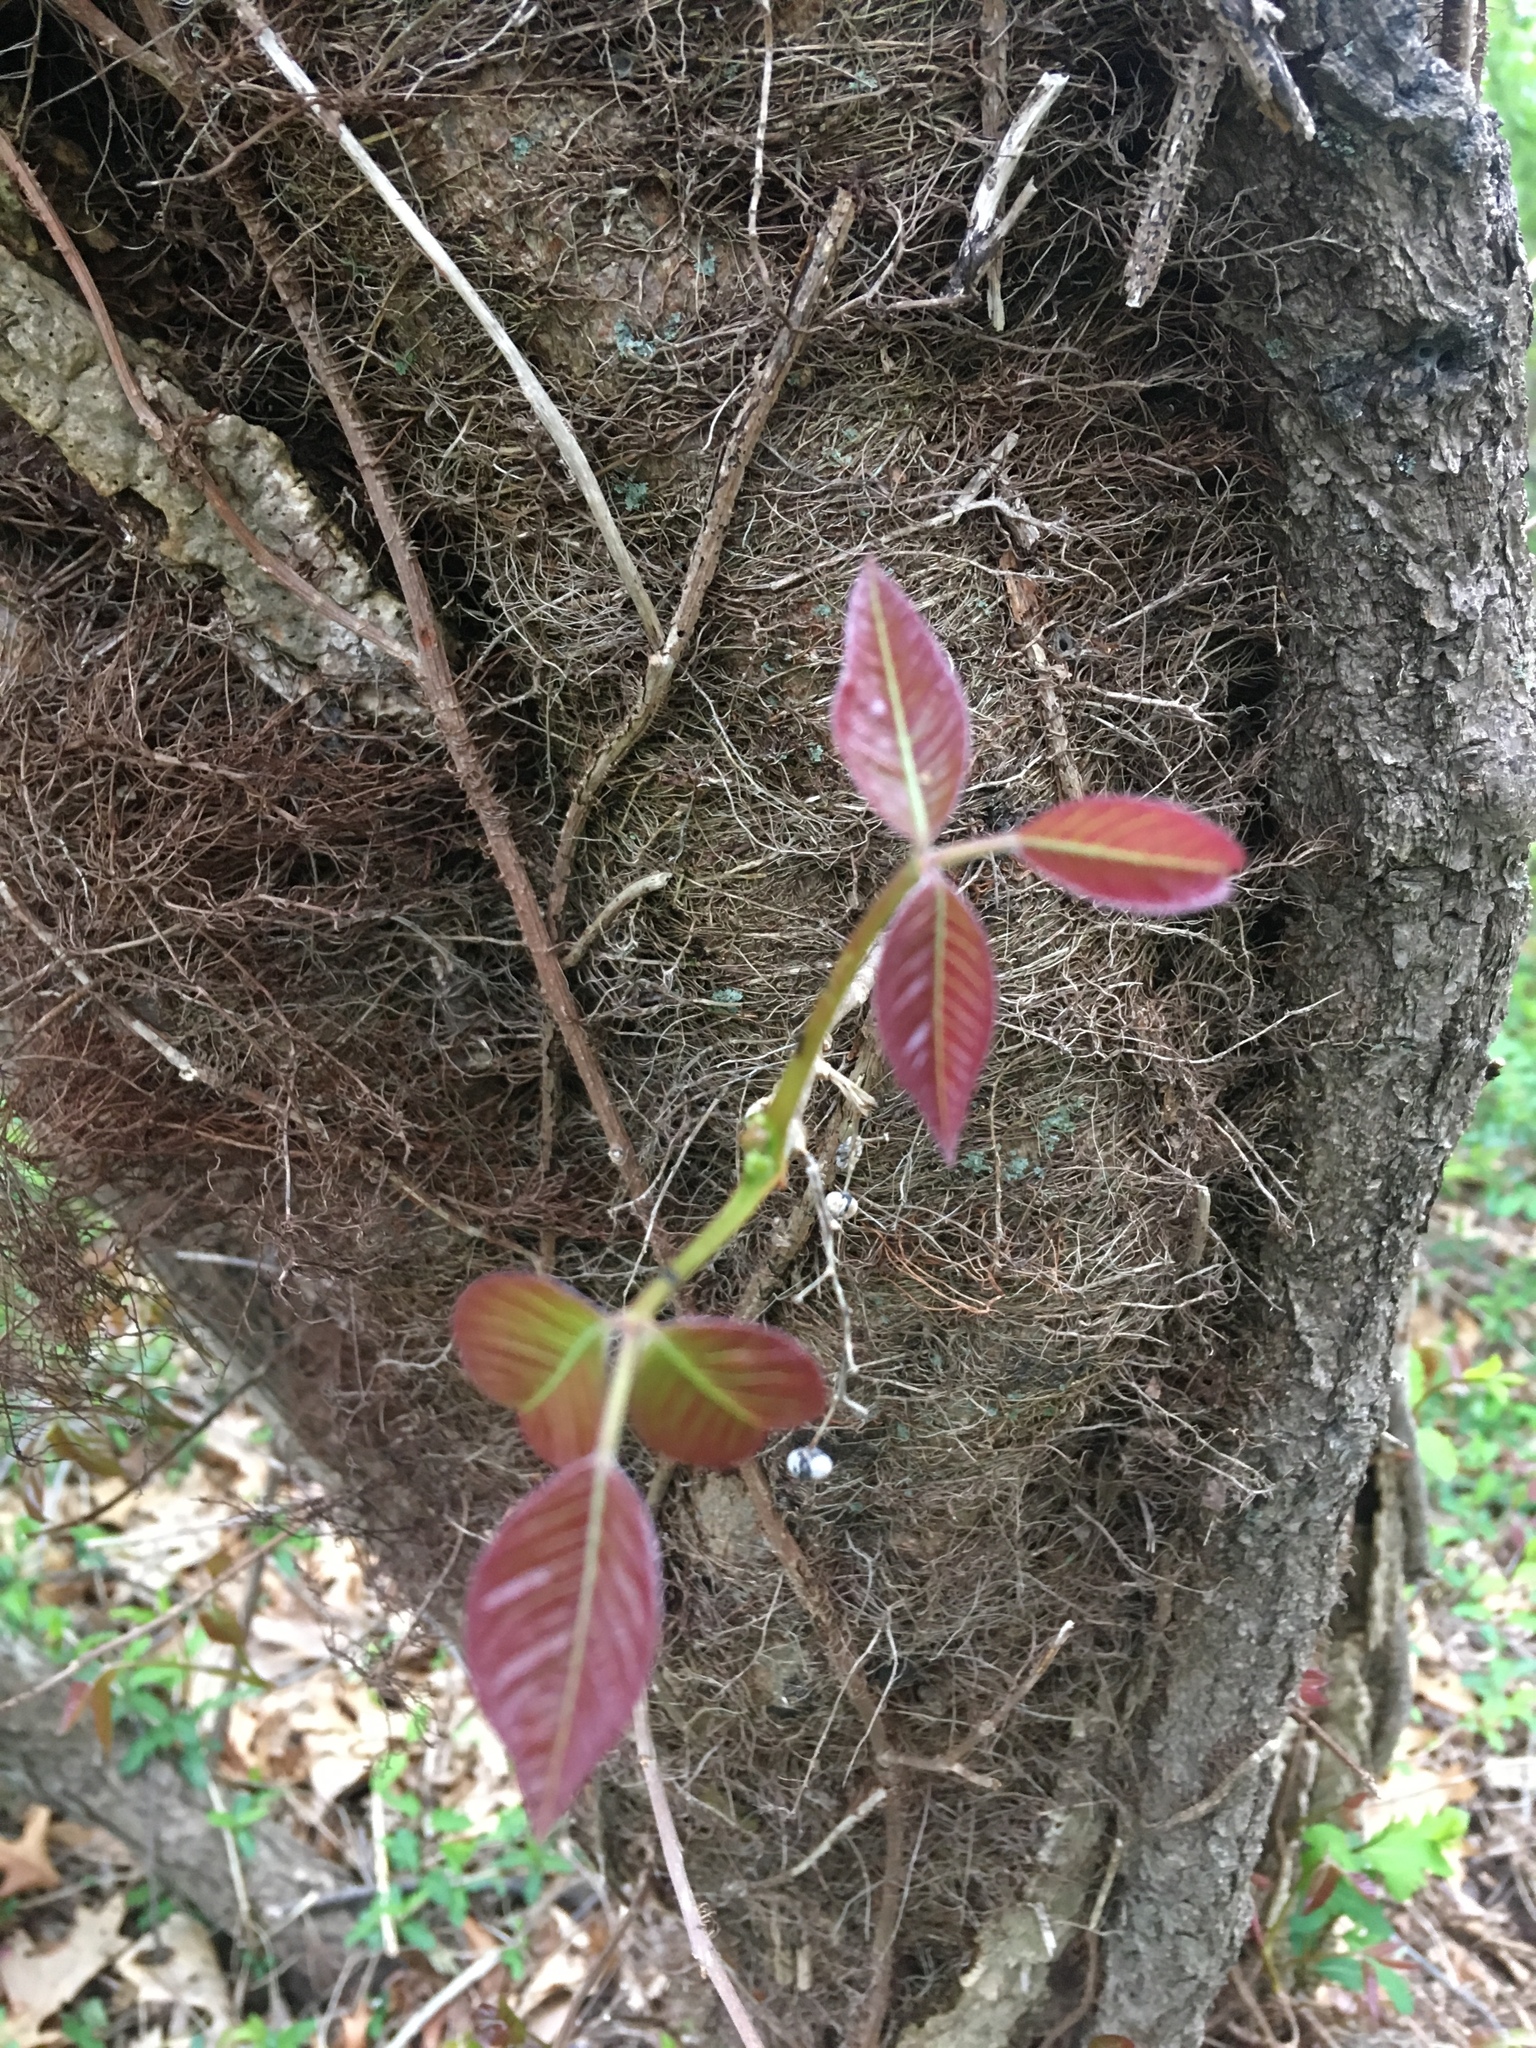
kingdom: Plantae
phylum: Tracheophyta
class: Magnoliopsida
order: Sapindales
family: Anacardiaceae
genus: Toxicodendron
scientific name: Toxicodendron radicans
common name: Poison ivy
